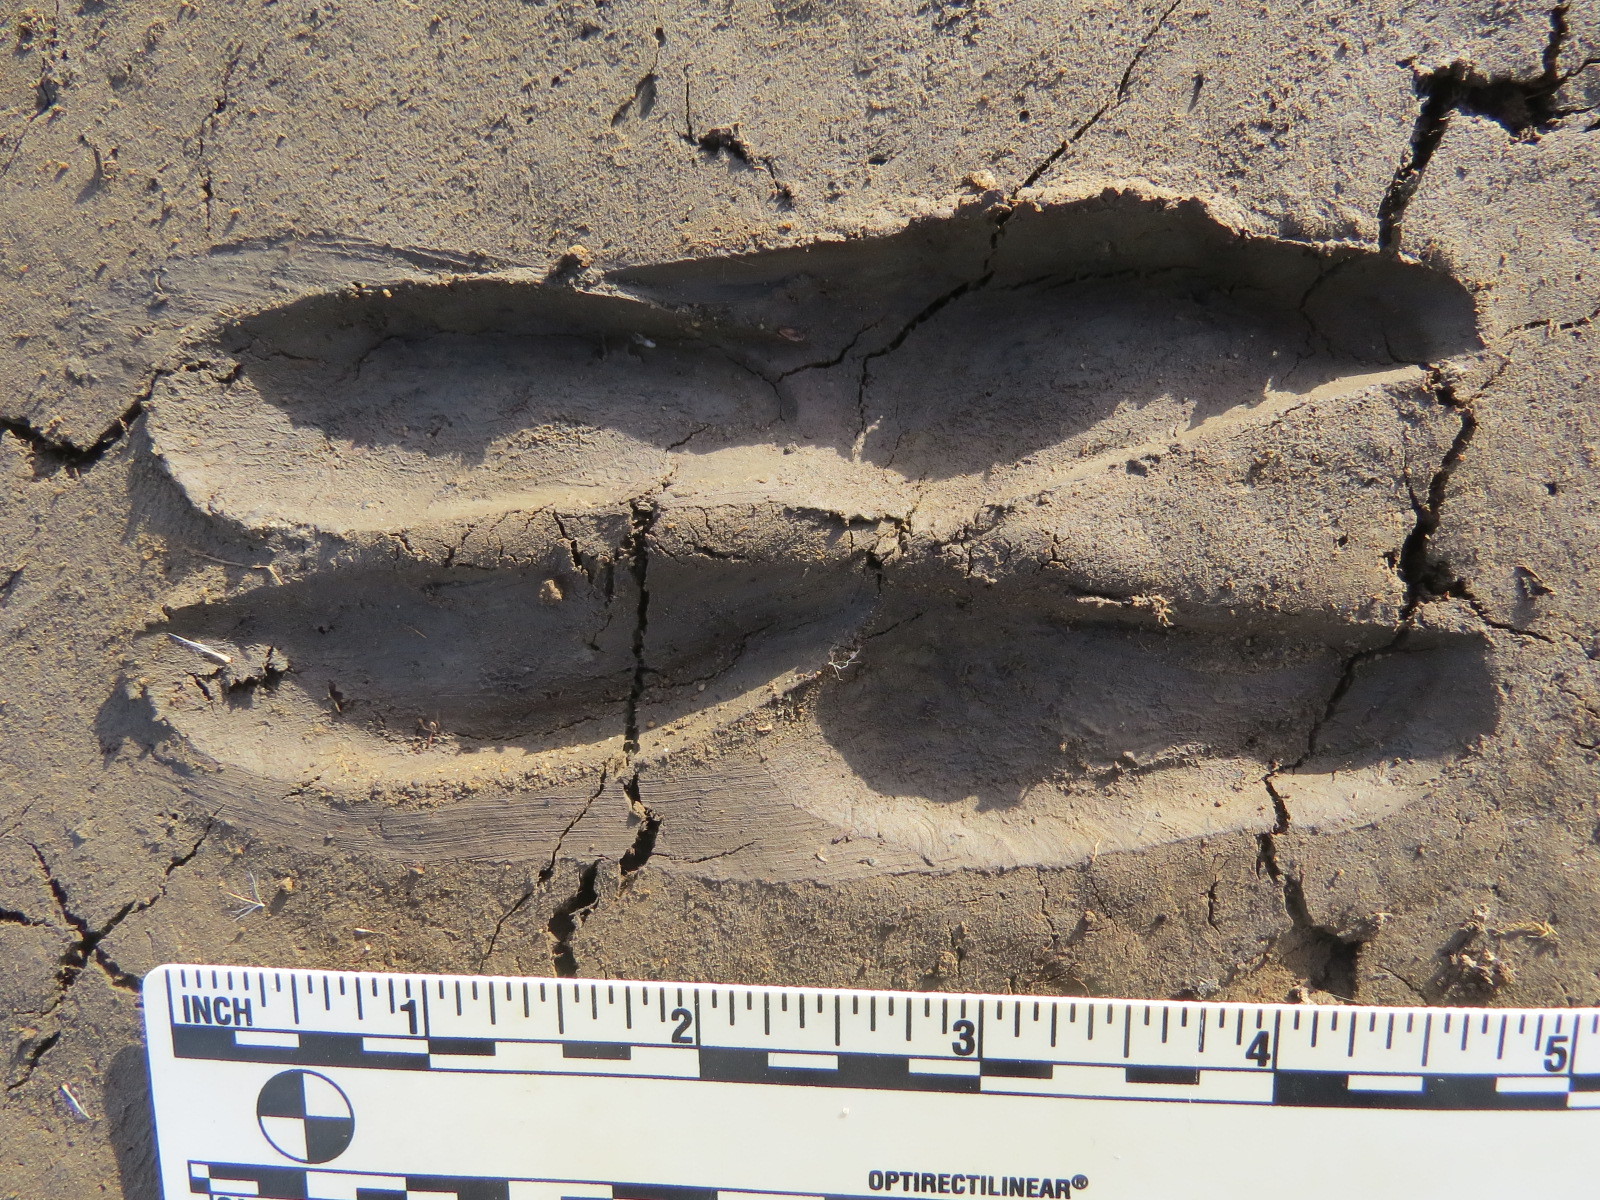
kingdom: Animalia
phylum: Chordata
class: Mammalia
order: Artiodactyla
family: Cervidae
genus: Odocoileus
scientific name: Odocoileus hemionus
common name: Mule deer
